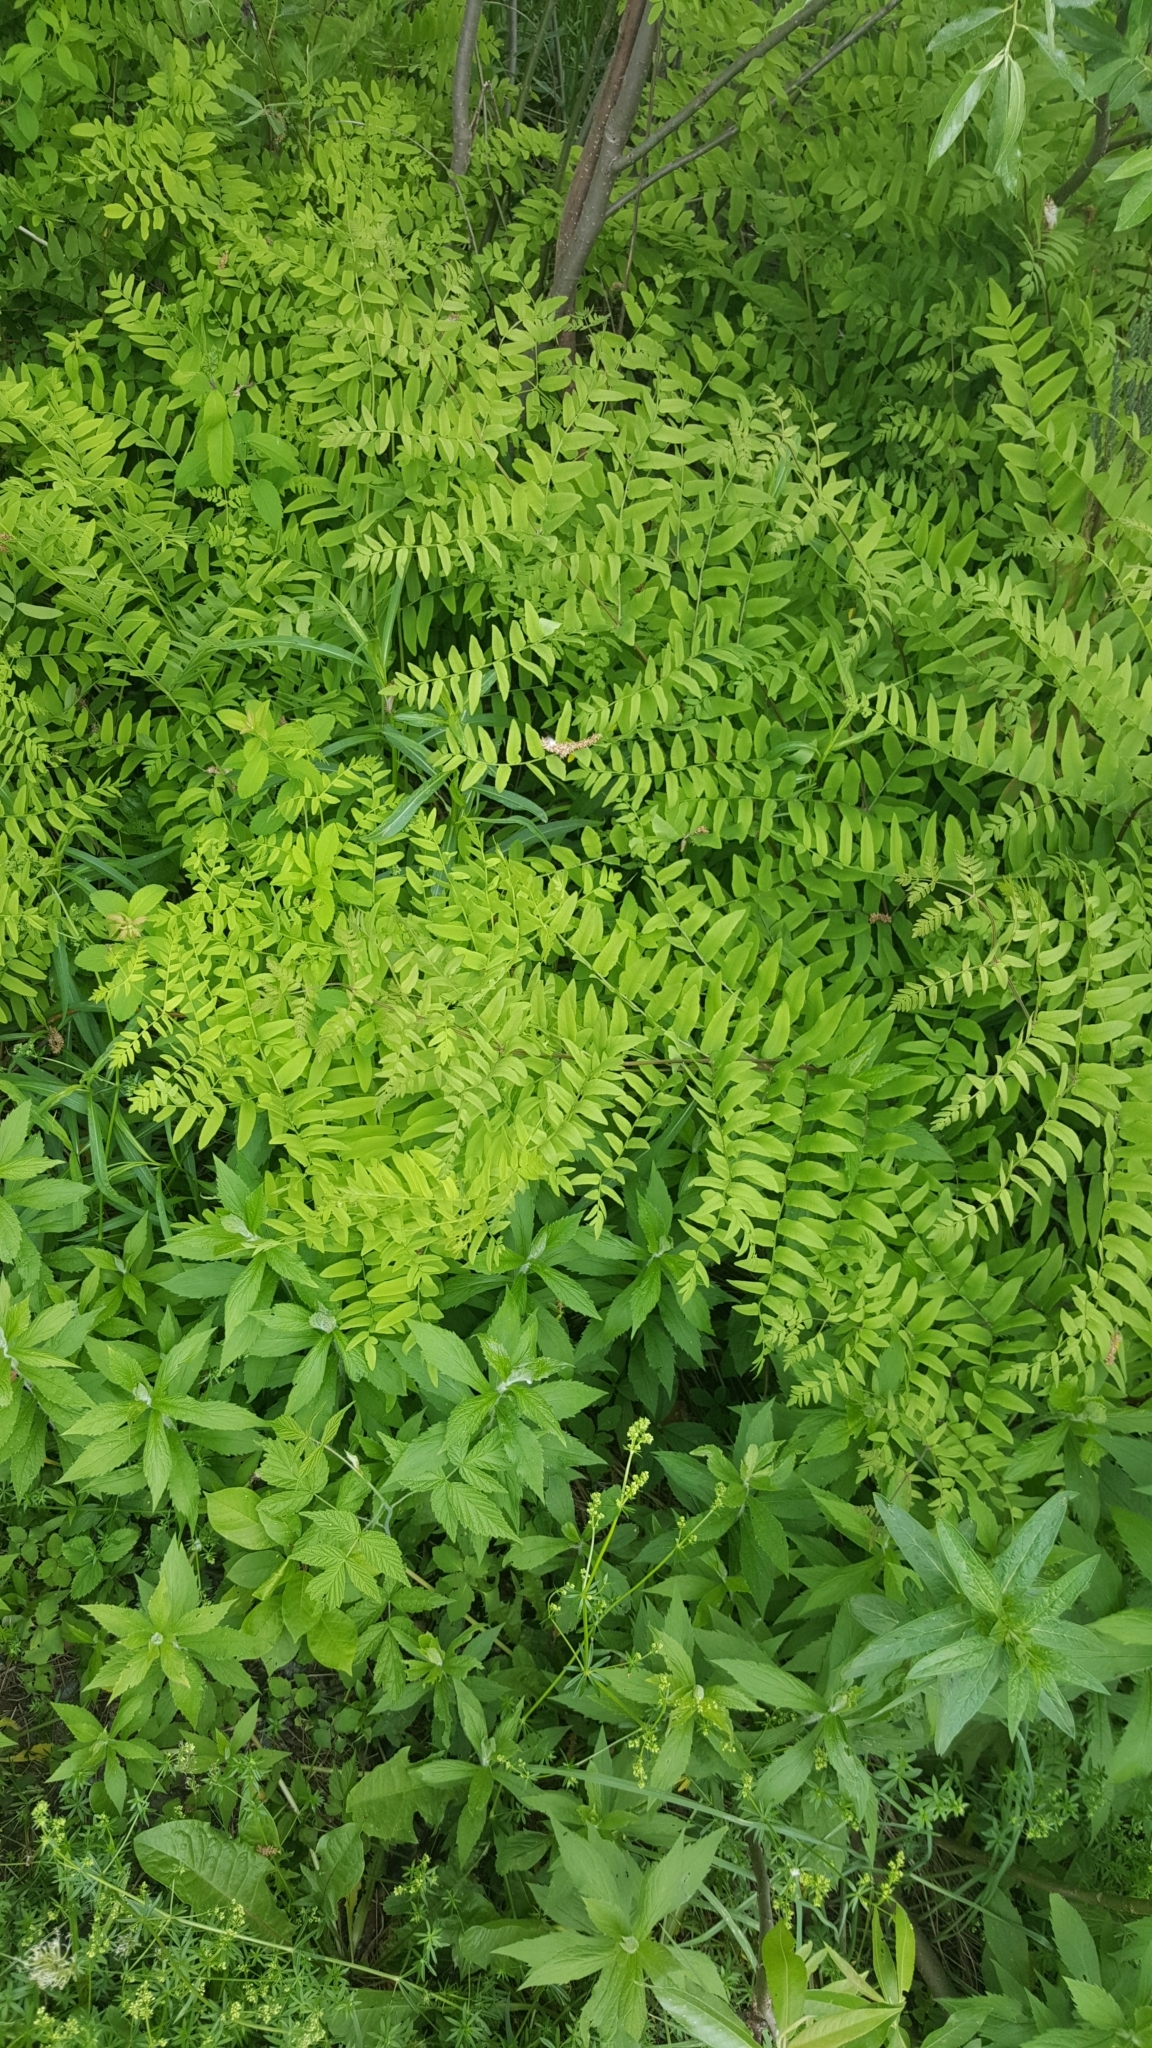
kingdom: Plantae
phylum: Tracheophyta
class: Polypodiopsida
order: Osmundales
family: Osmundaceae
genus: Osmunda
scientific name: Osmunda spectabilis
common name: American royal fern
